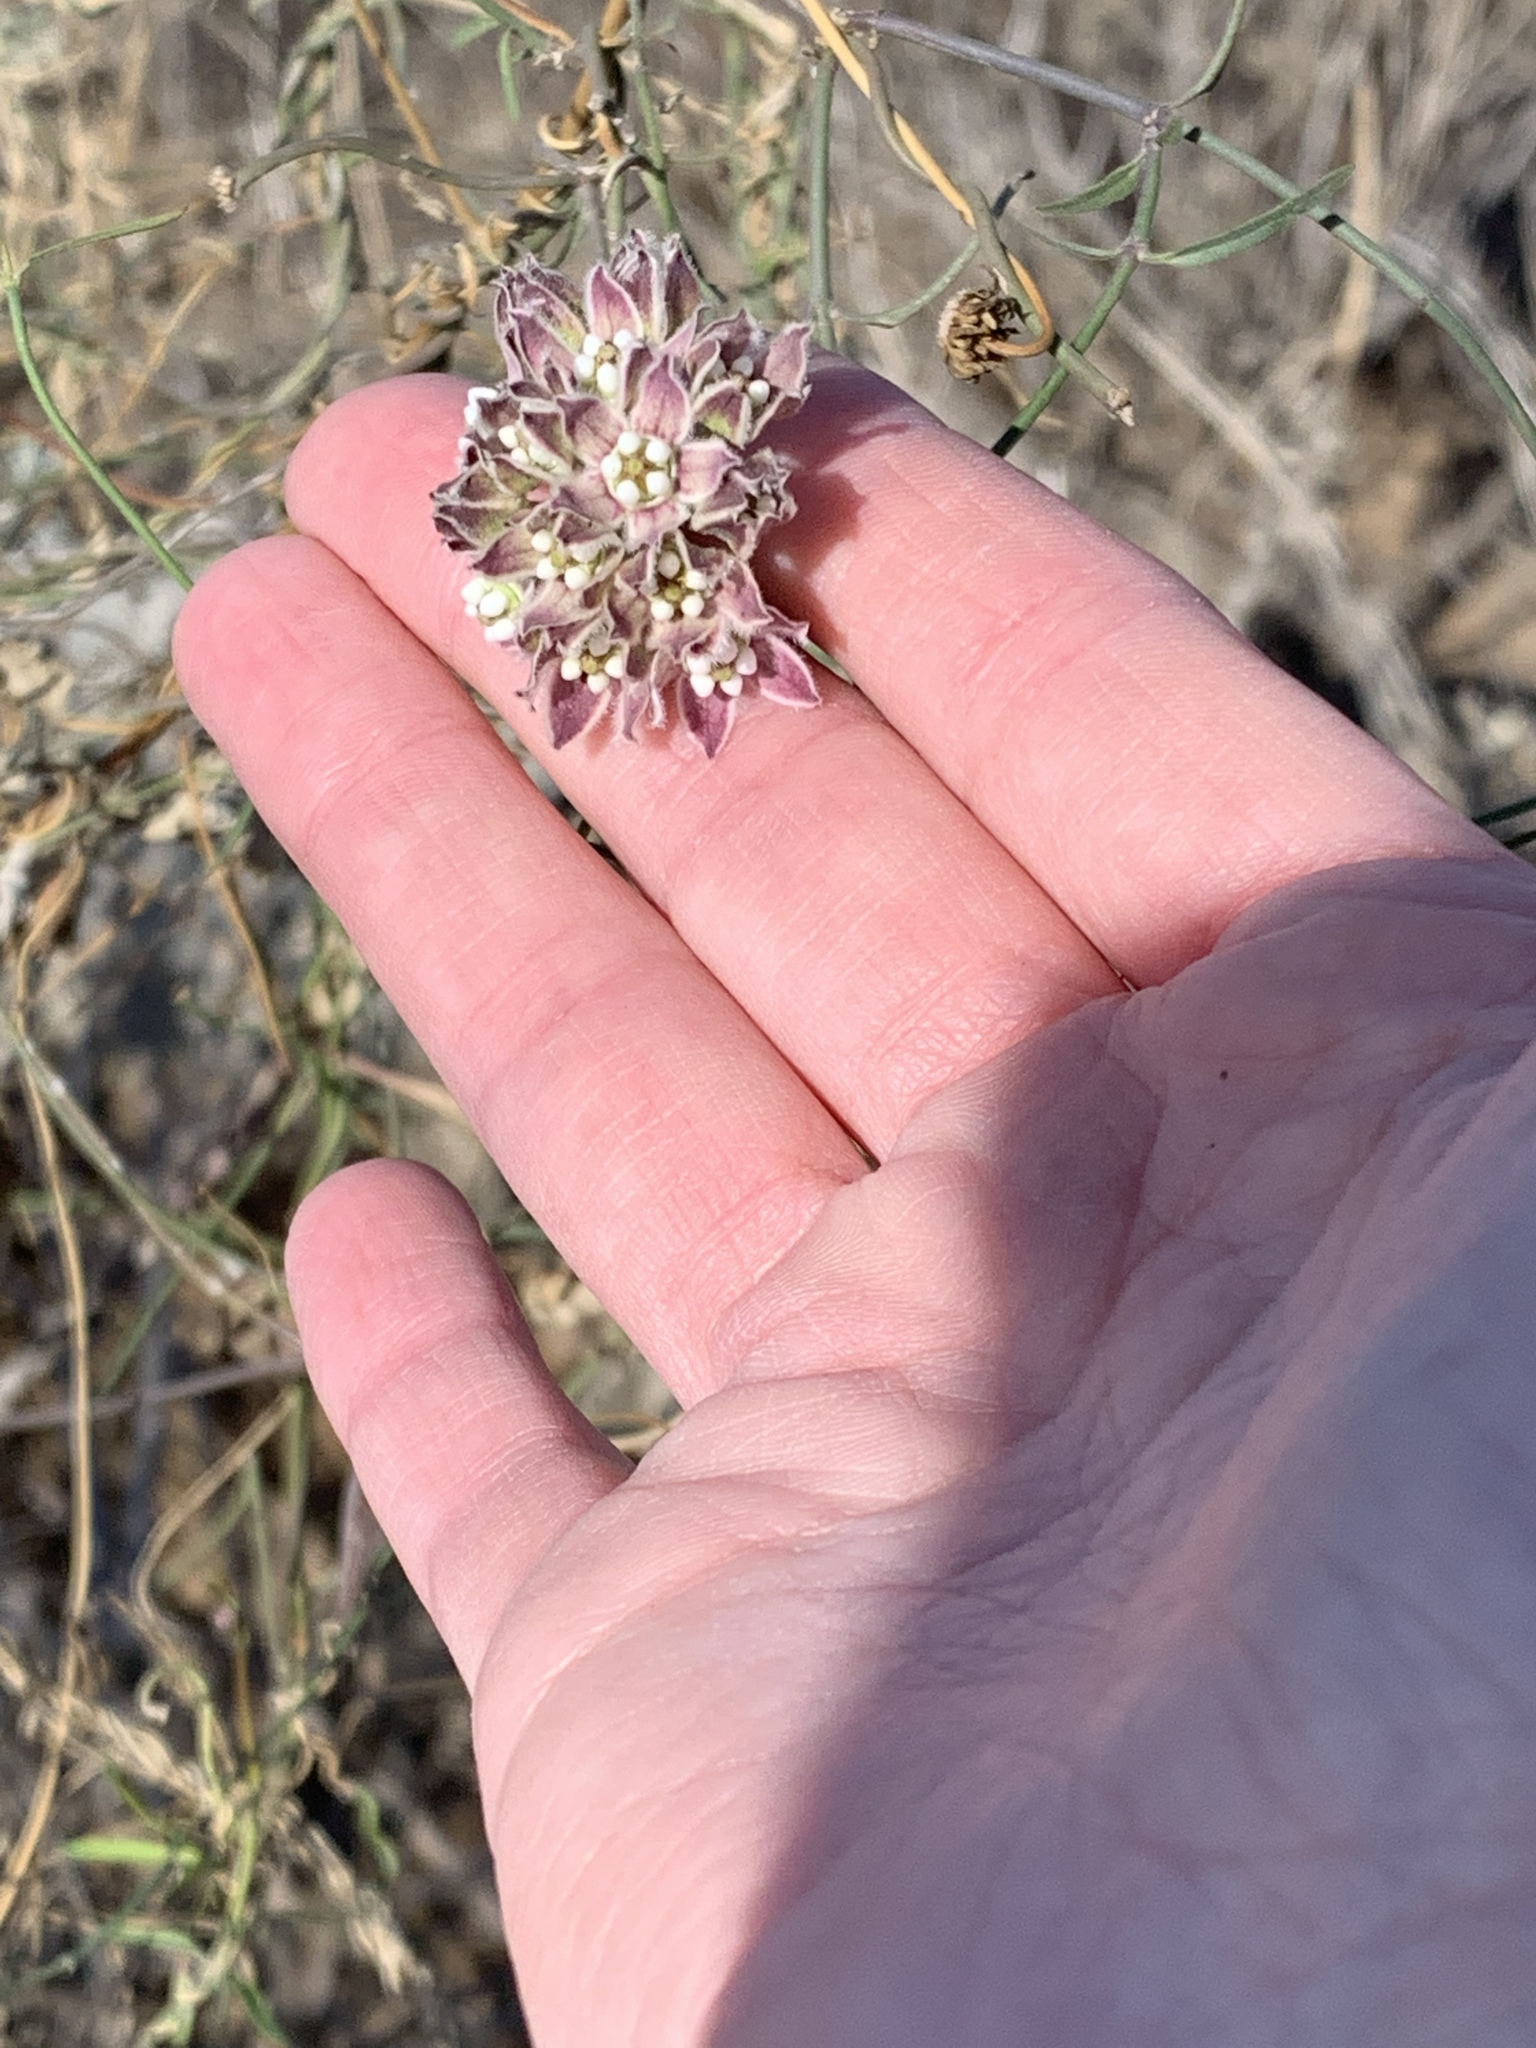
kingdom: Plantae
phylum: Tracheophyta
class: Magnoliopsida
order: Gentianales
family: Apocynaceae
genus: Funastrum
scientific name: Funastrum heterophyllum
